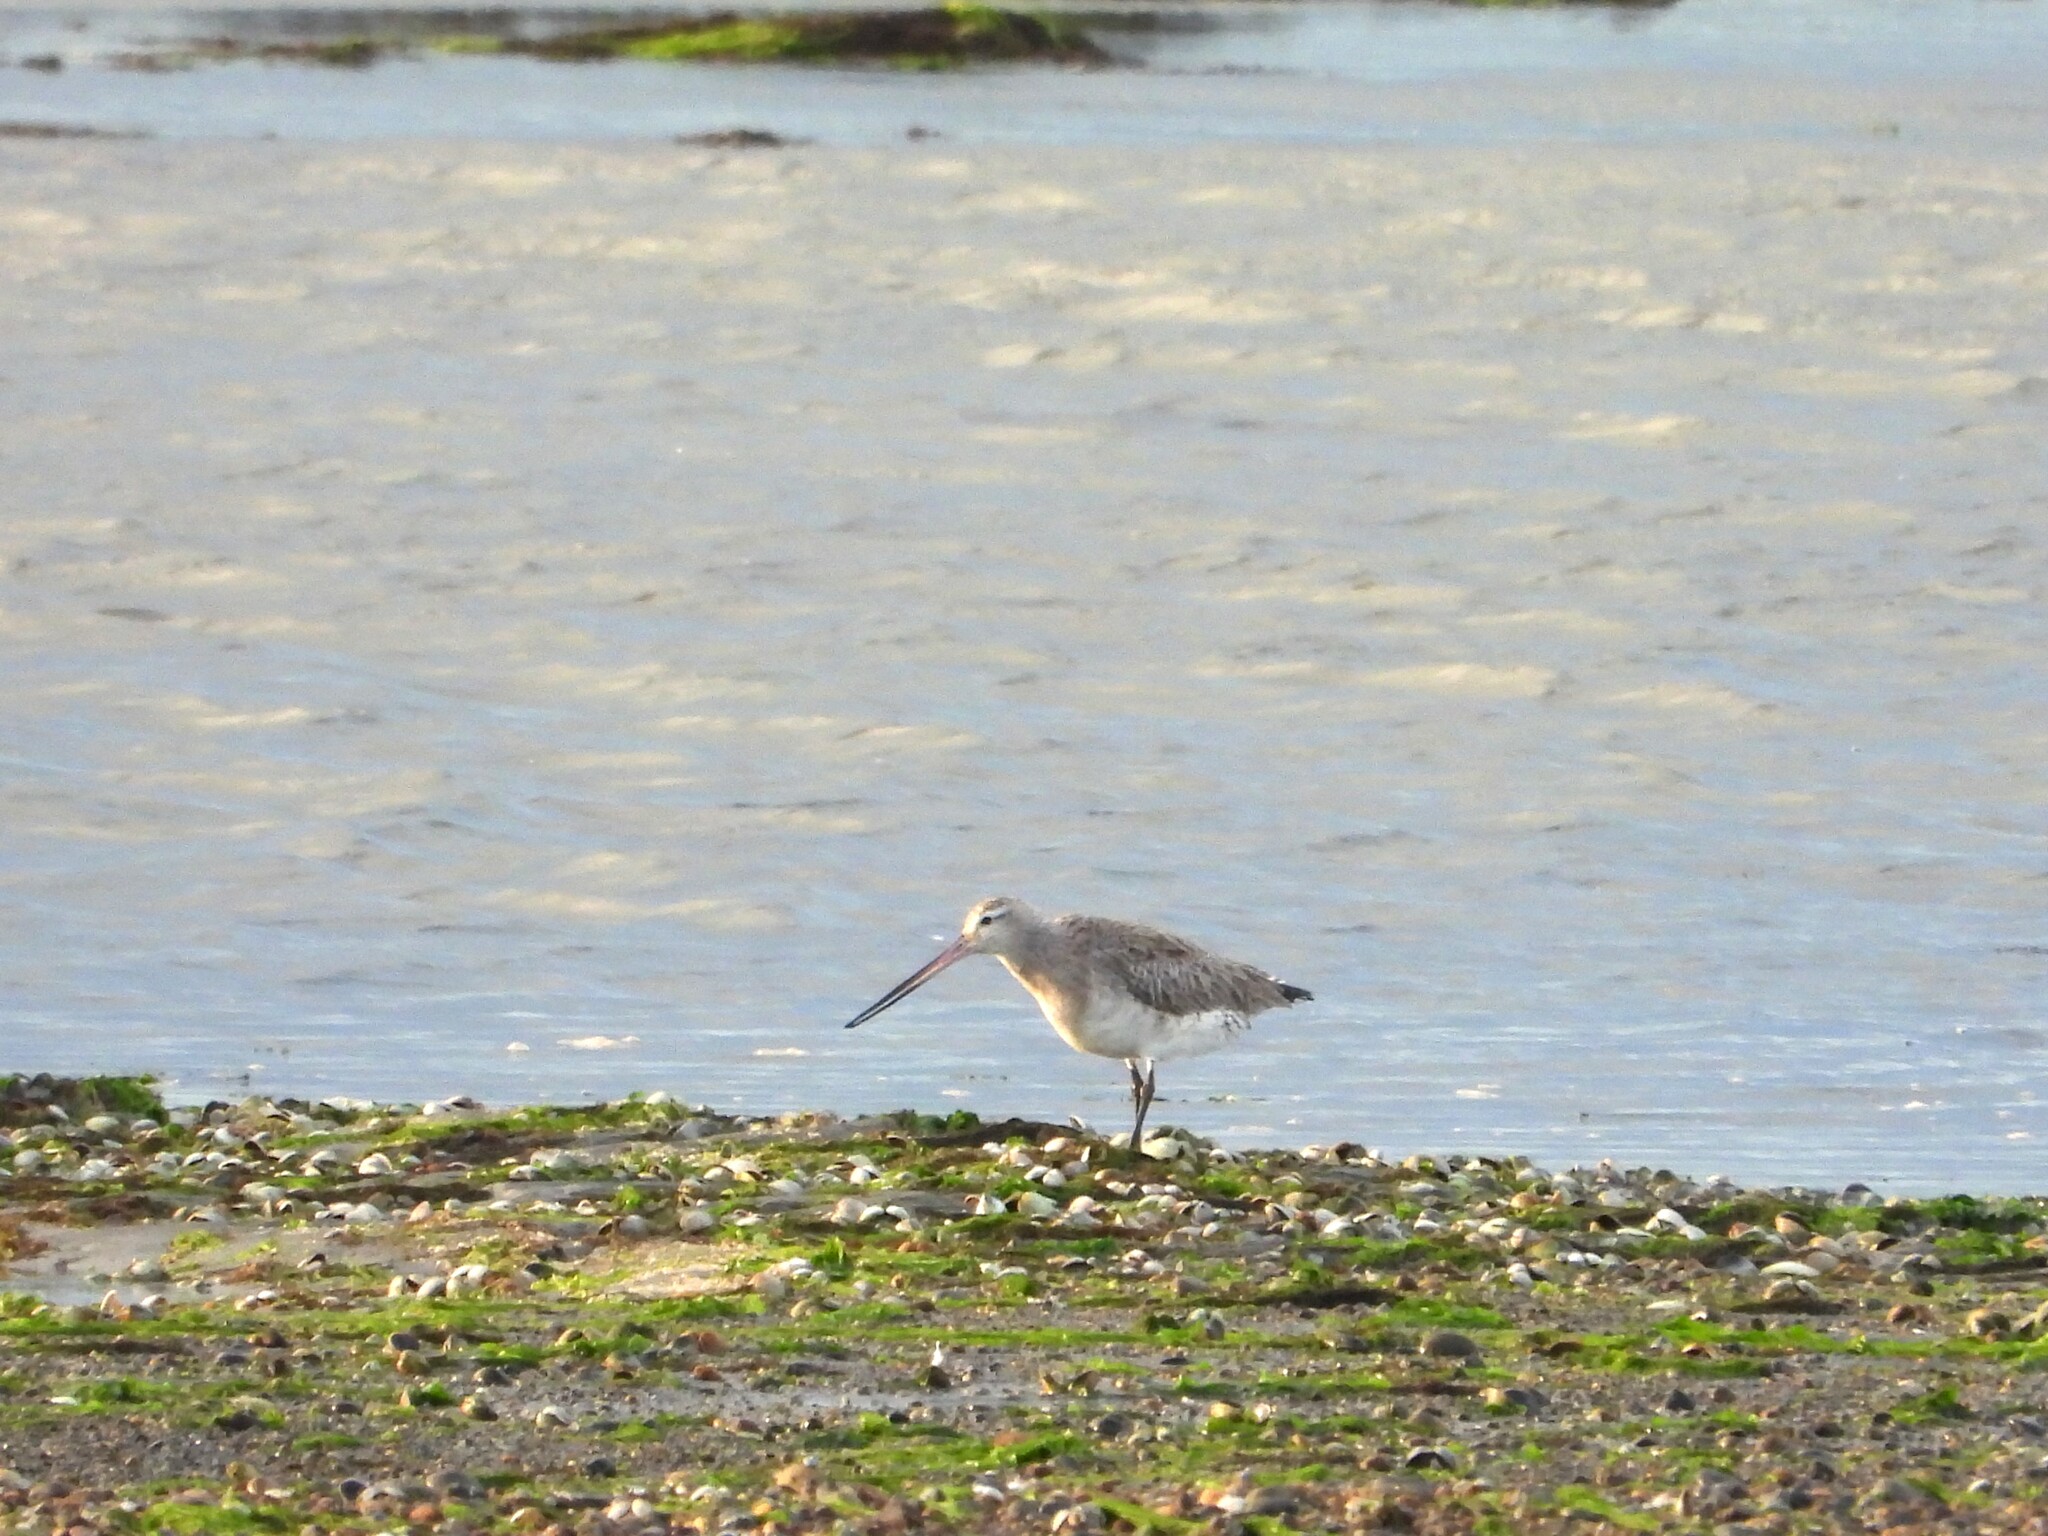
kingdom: Animalia
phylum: Chordata
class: Aves
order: Charadriiformes
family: Scolopacidae
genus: Limosa
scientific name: Limosa lapponica
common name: Bar-tailed godwit
